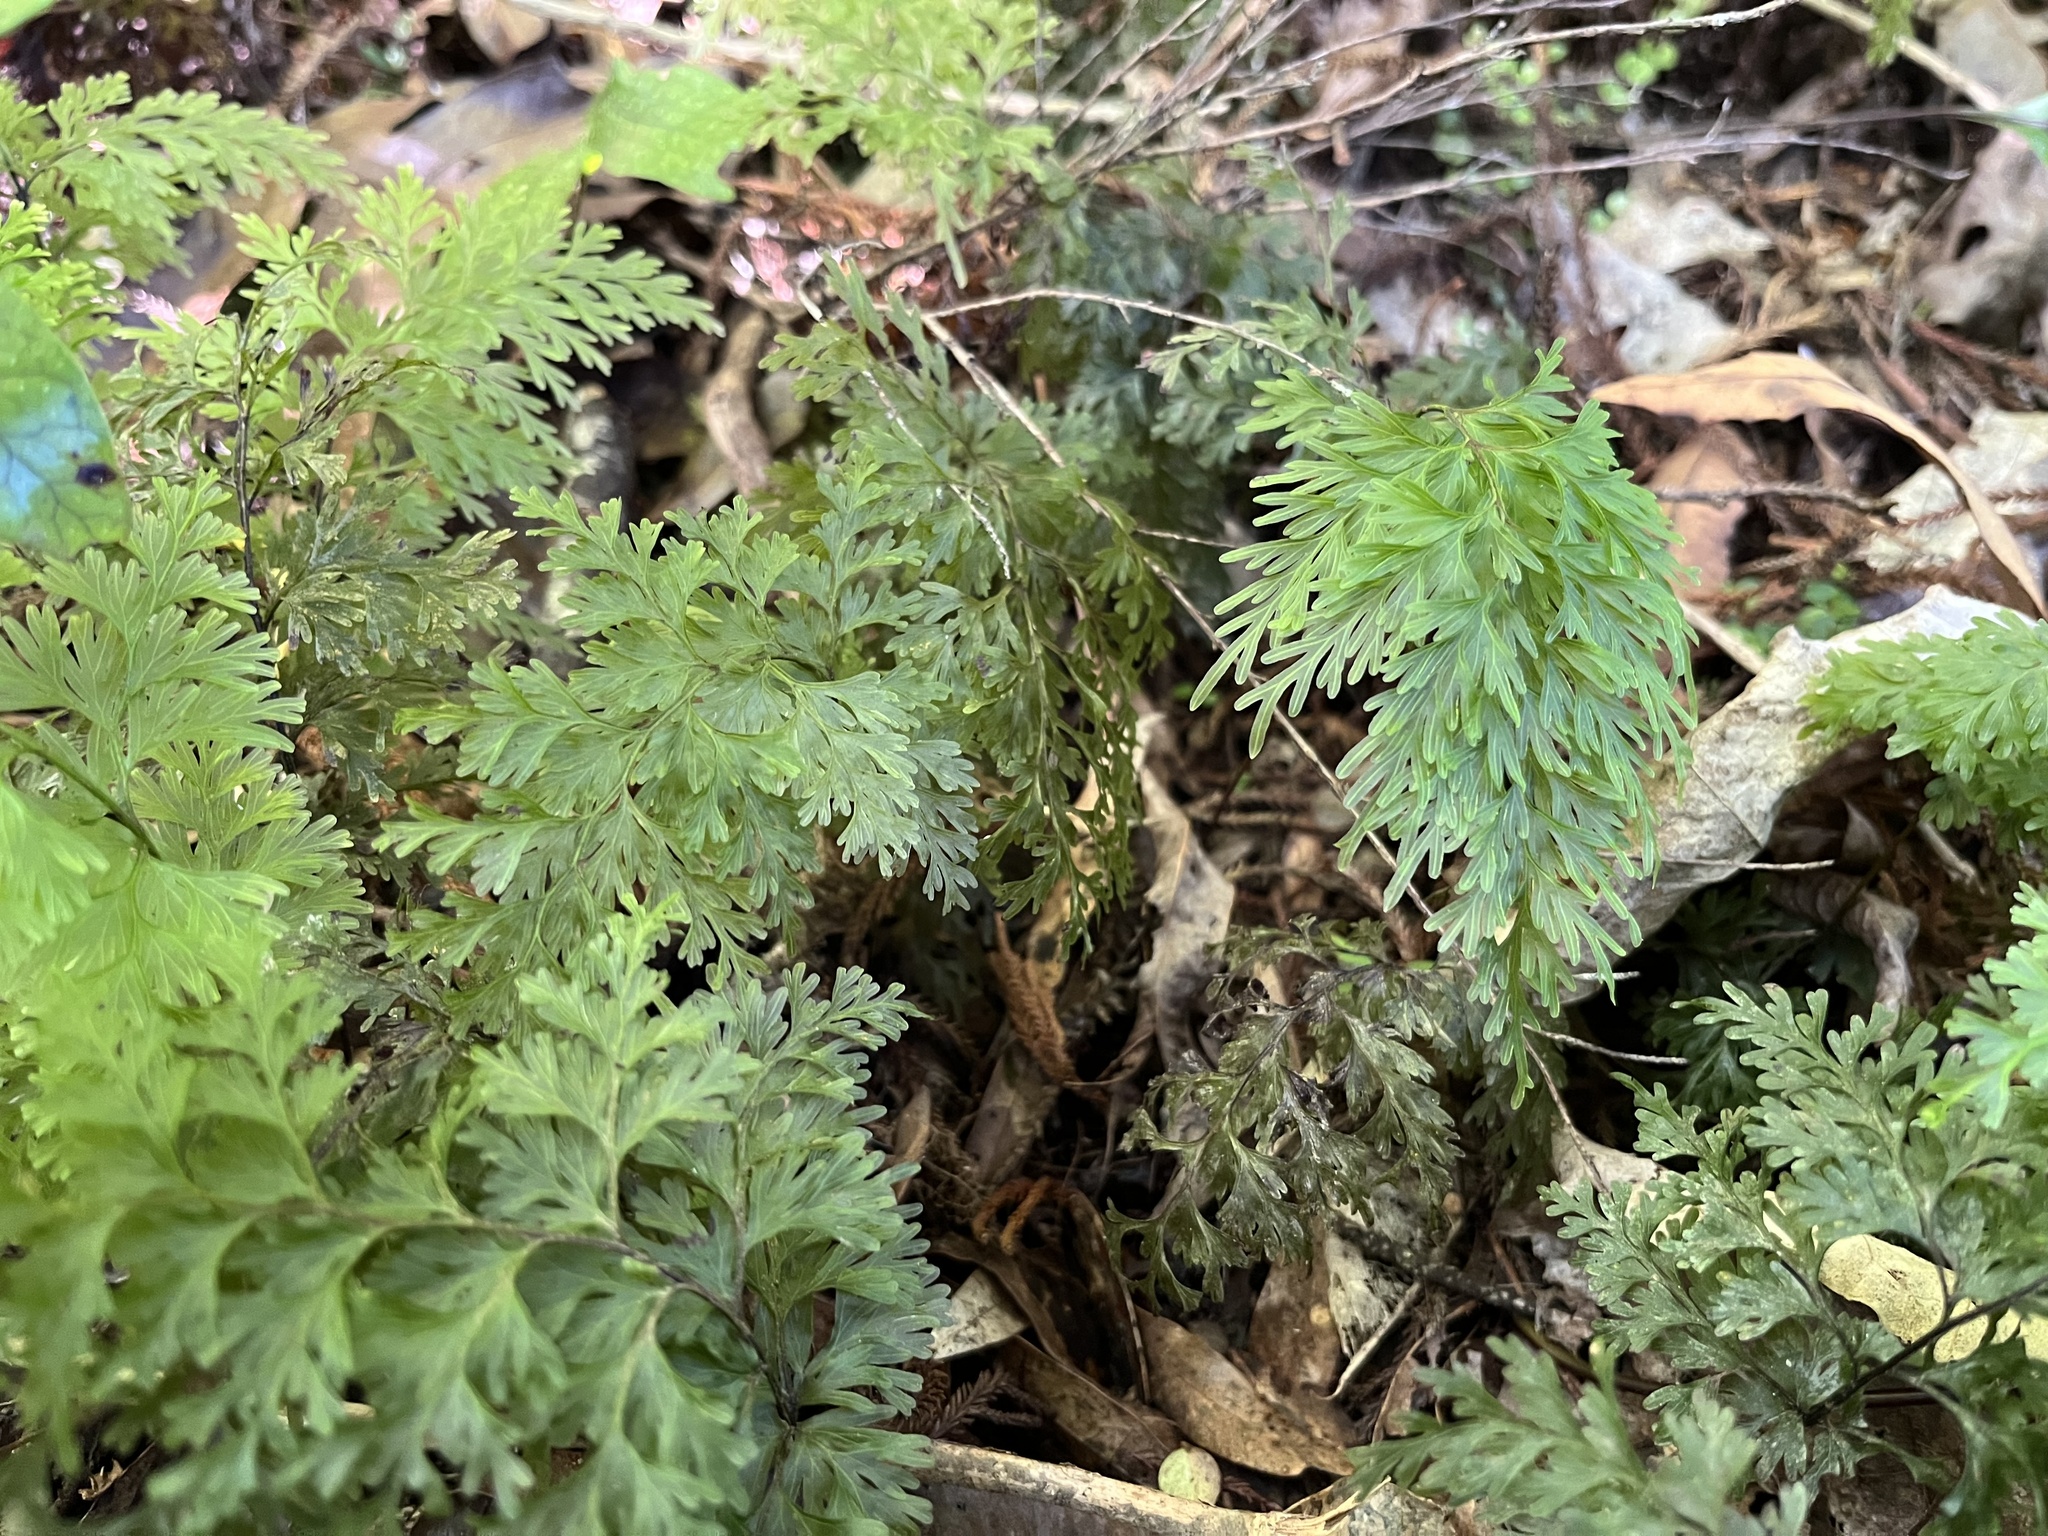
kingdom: Plantae
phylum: Tracheophyta
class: Polypodiopsida
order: Hymenophyllales
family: Hymenophyllaceae
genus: Hymenophyllum
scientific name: Hymenophyllum demissum
